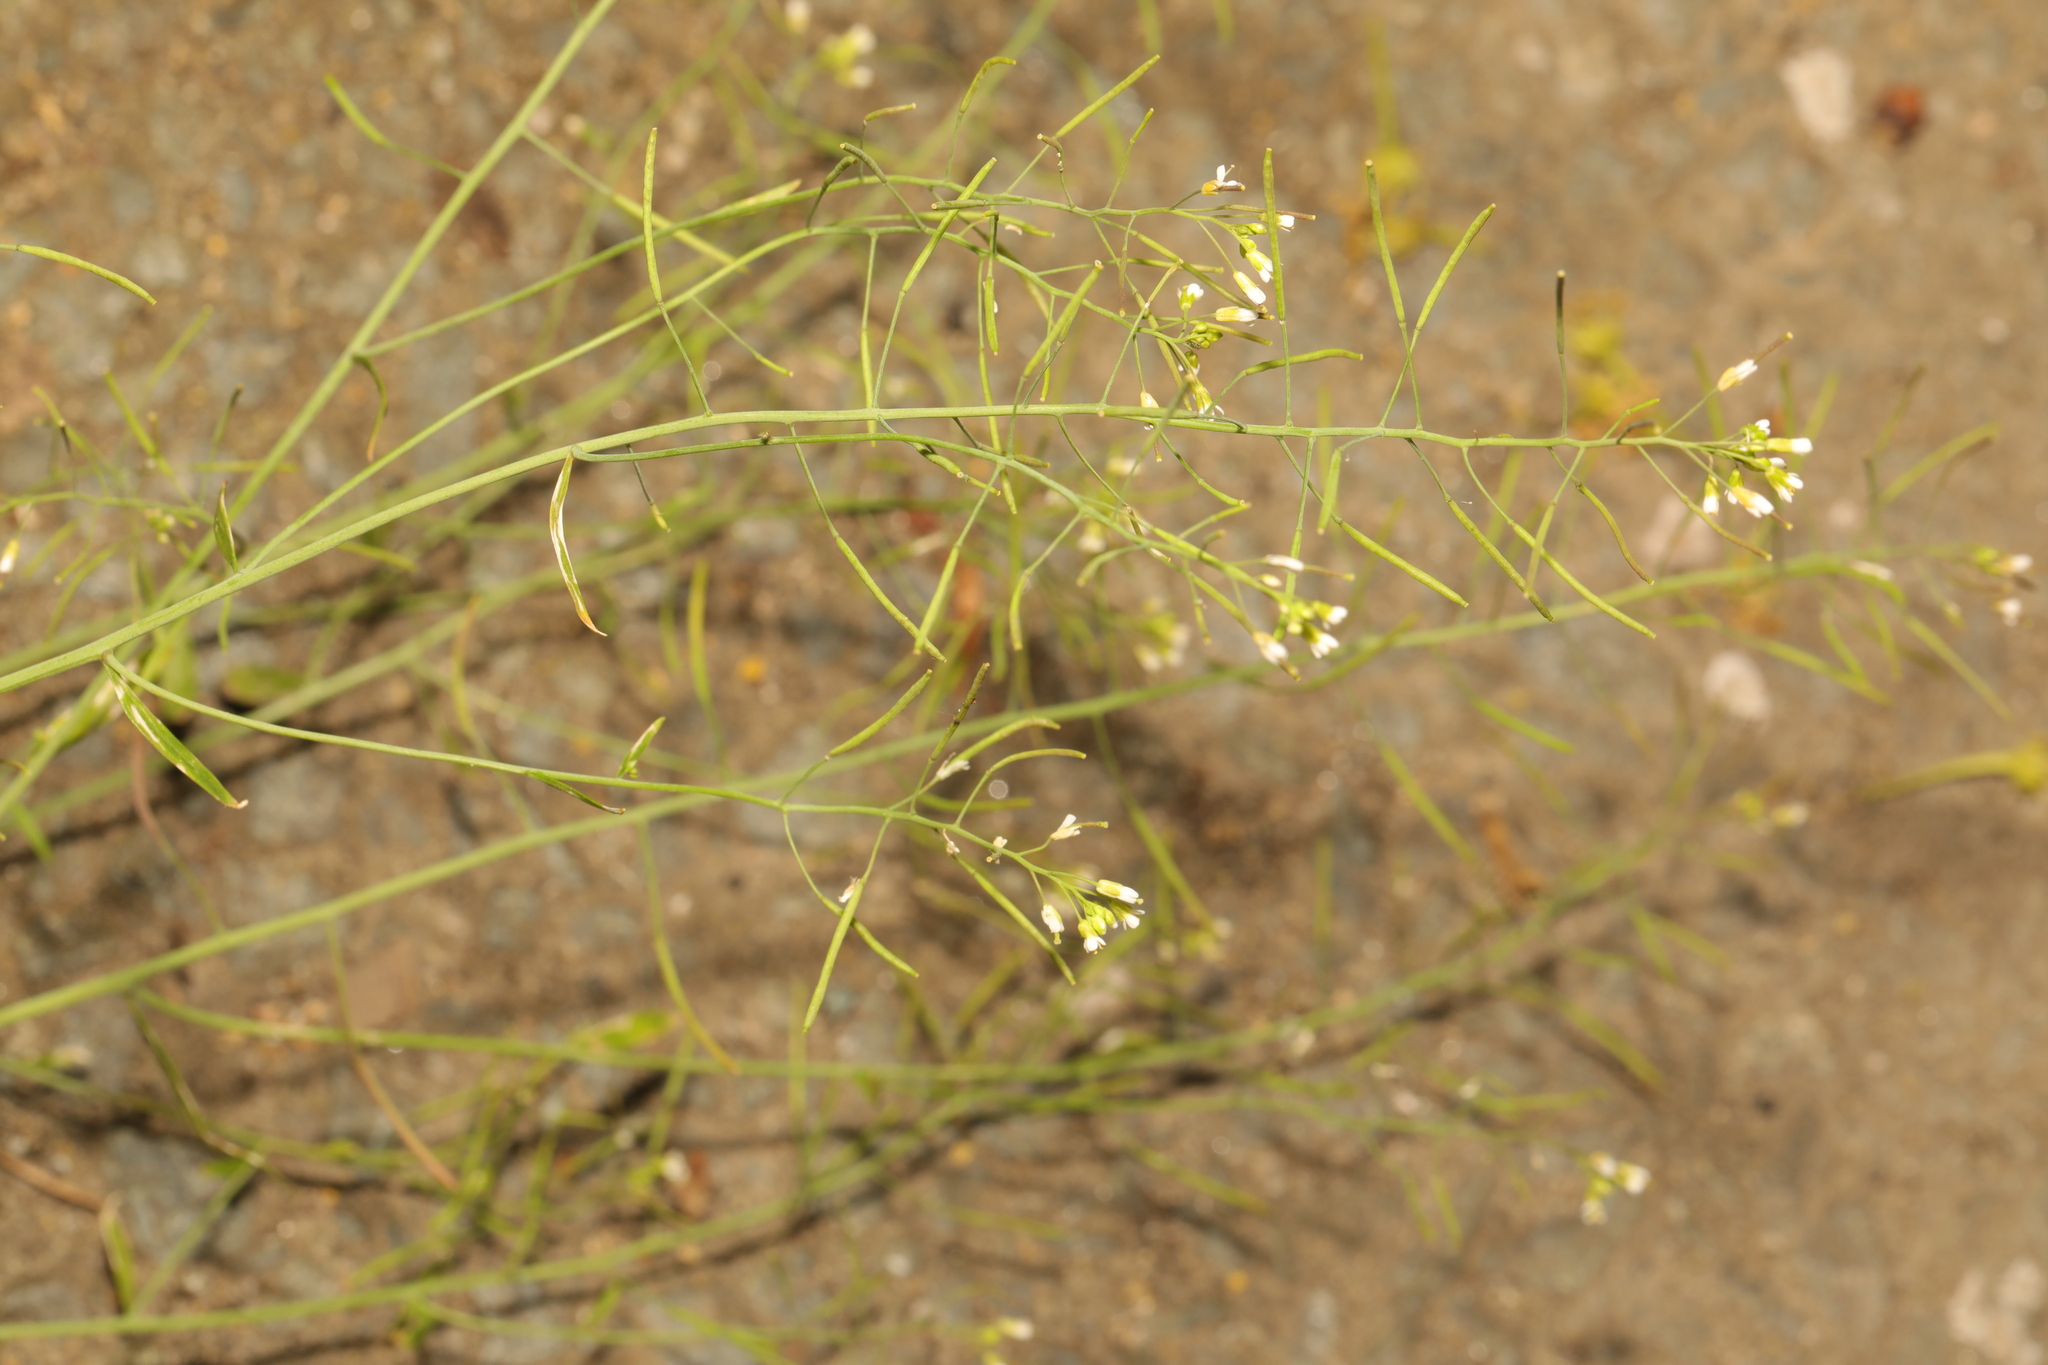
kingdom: Plantae
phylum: Tracheophyta
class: Magnoliopsida
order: Brassicales
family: Brassicaceae
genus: Arabidopsis
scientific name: Arabidopsis thaliana
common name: Thale cress
